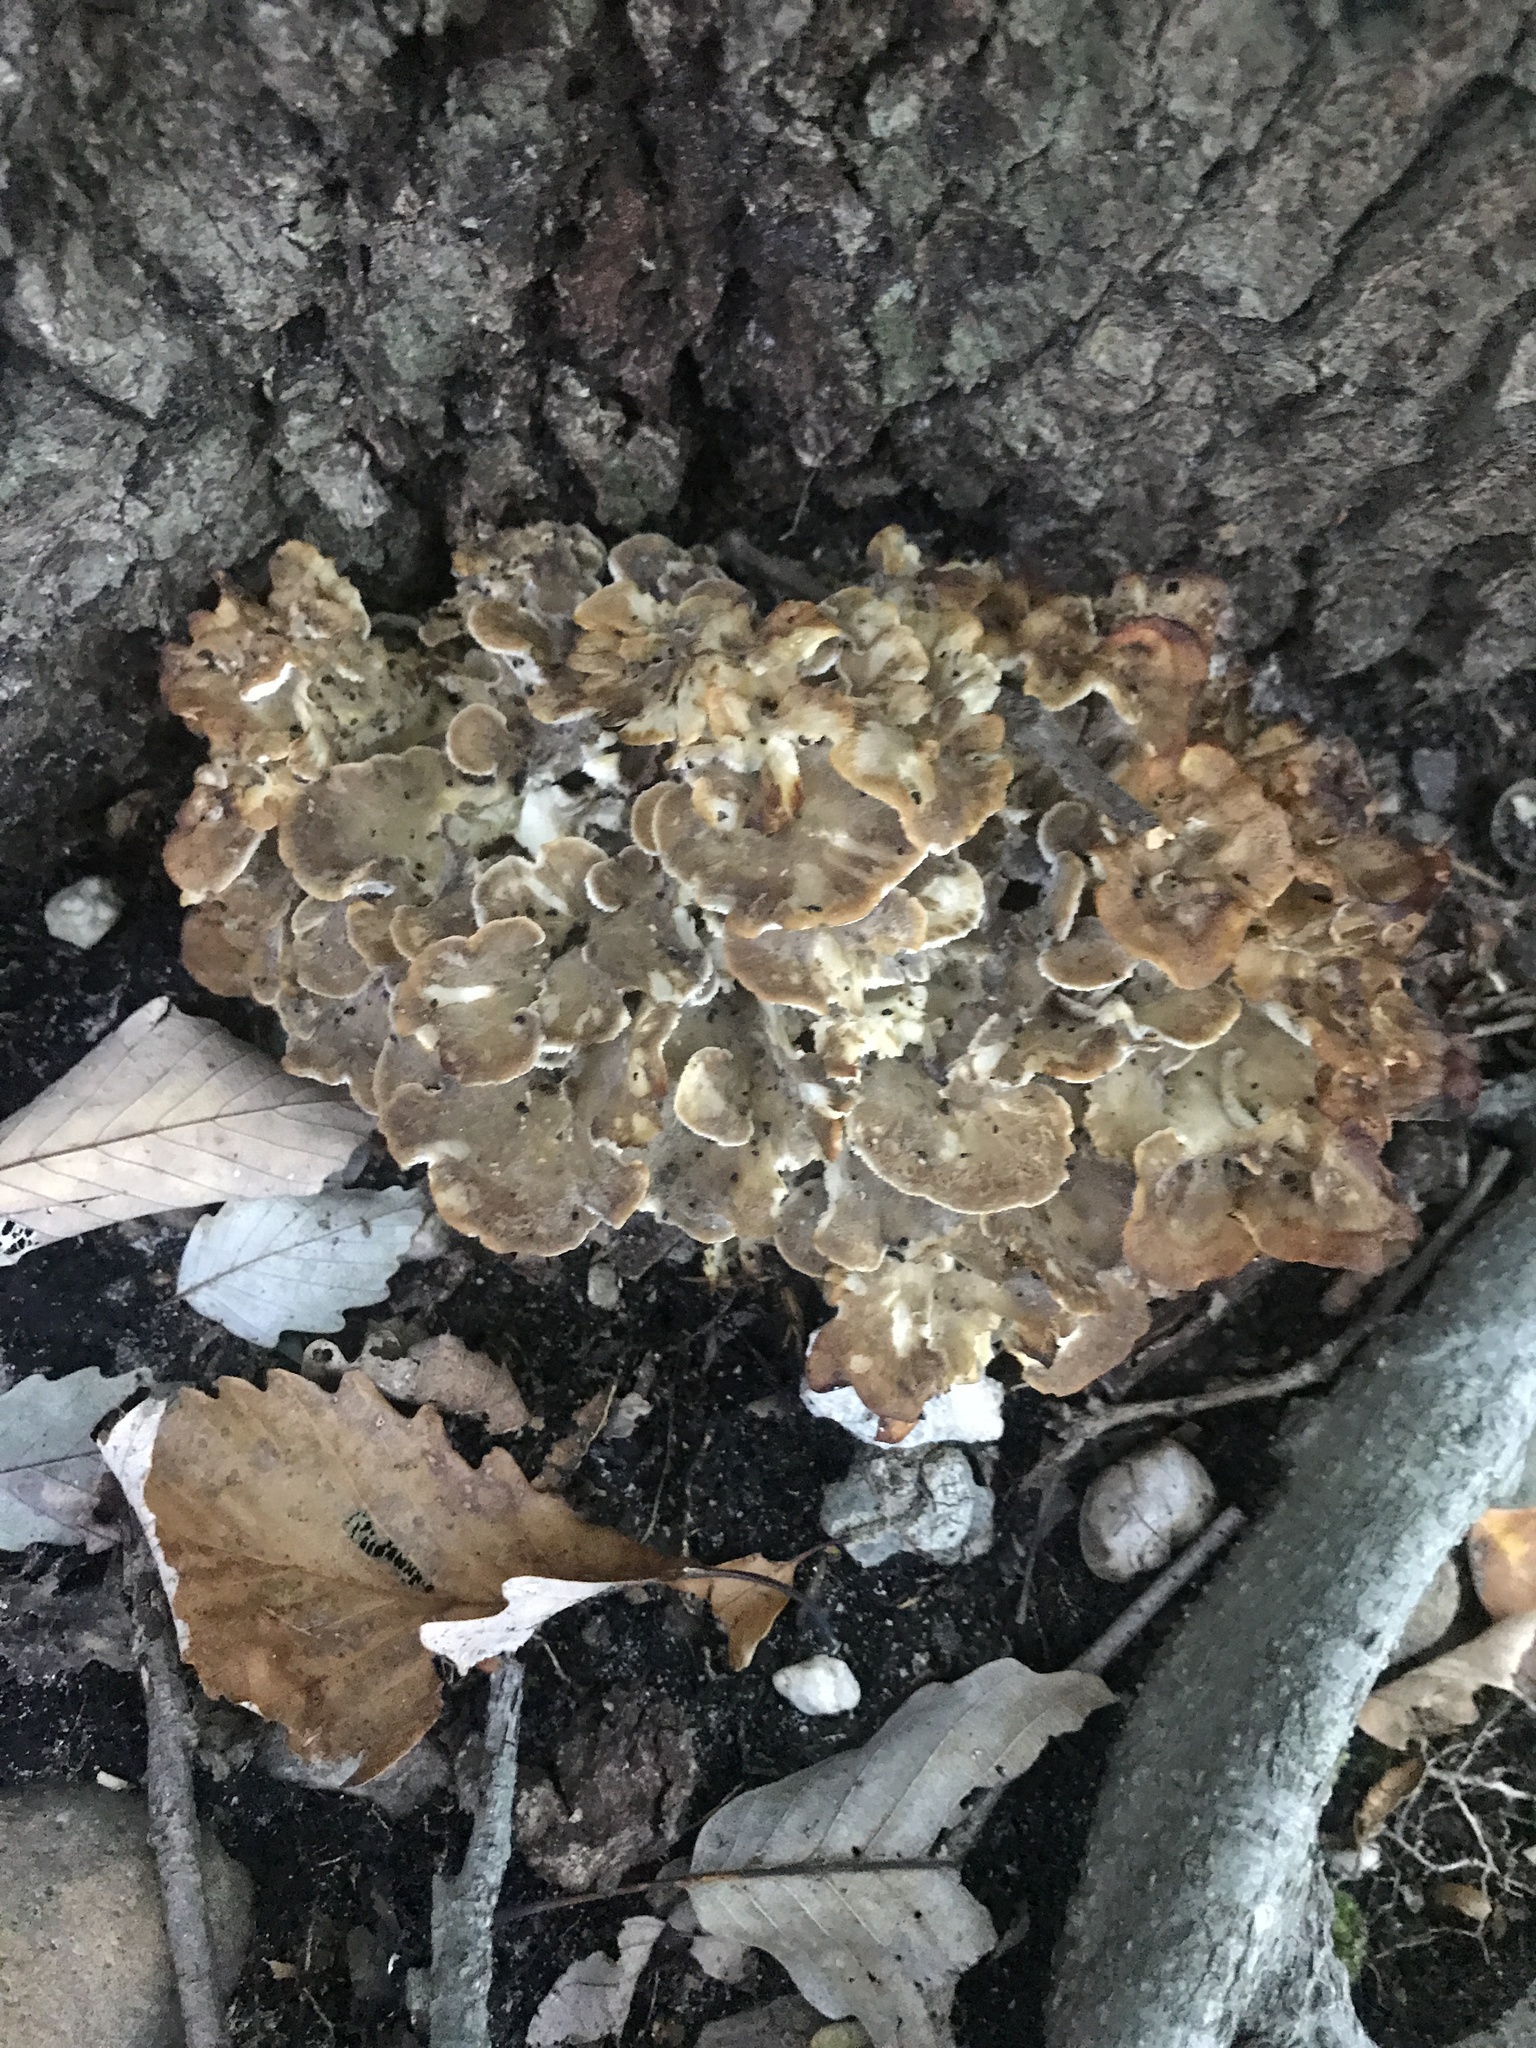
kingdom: Fungi
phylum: Basidiomycota
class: Agaricomycetes
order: Polyporales
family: Grifolaceae
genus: Grifola
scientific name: Grifola frondosa
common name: Hen of the woods
